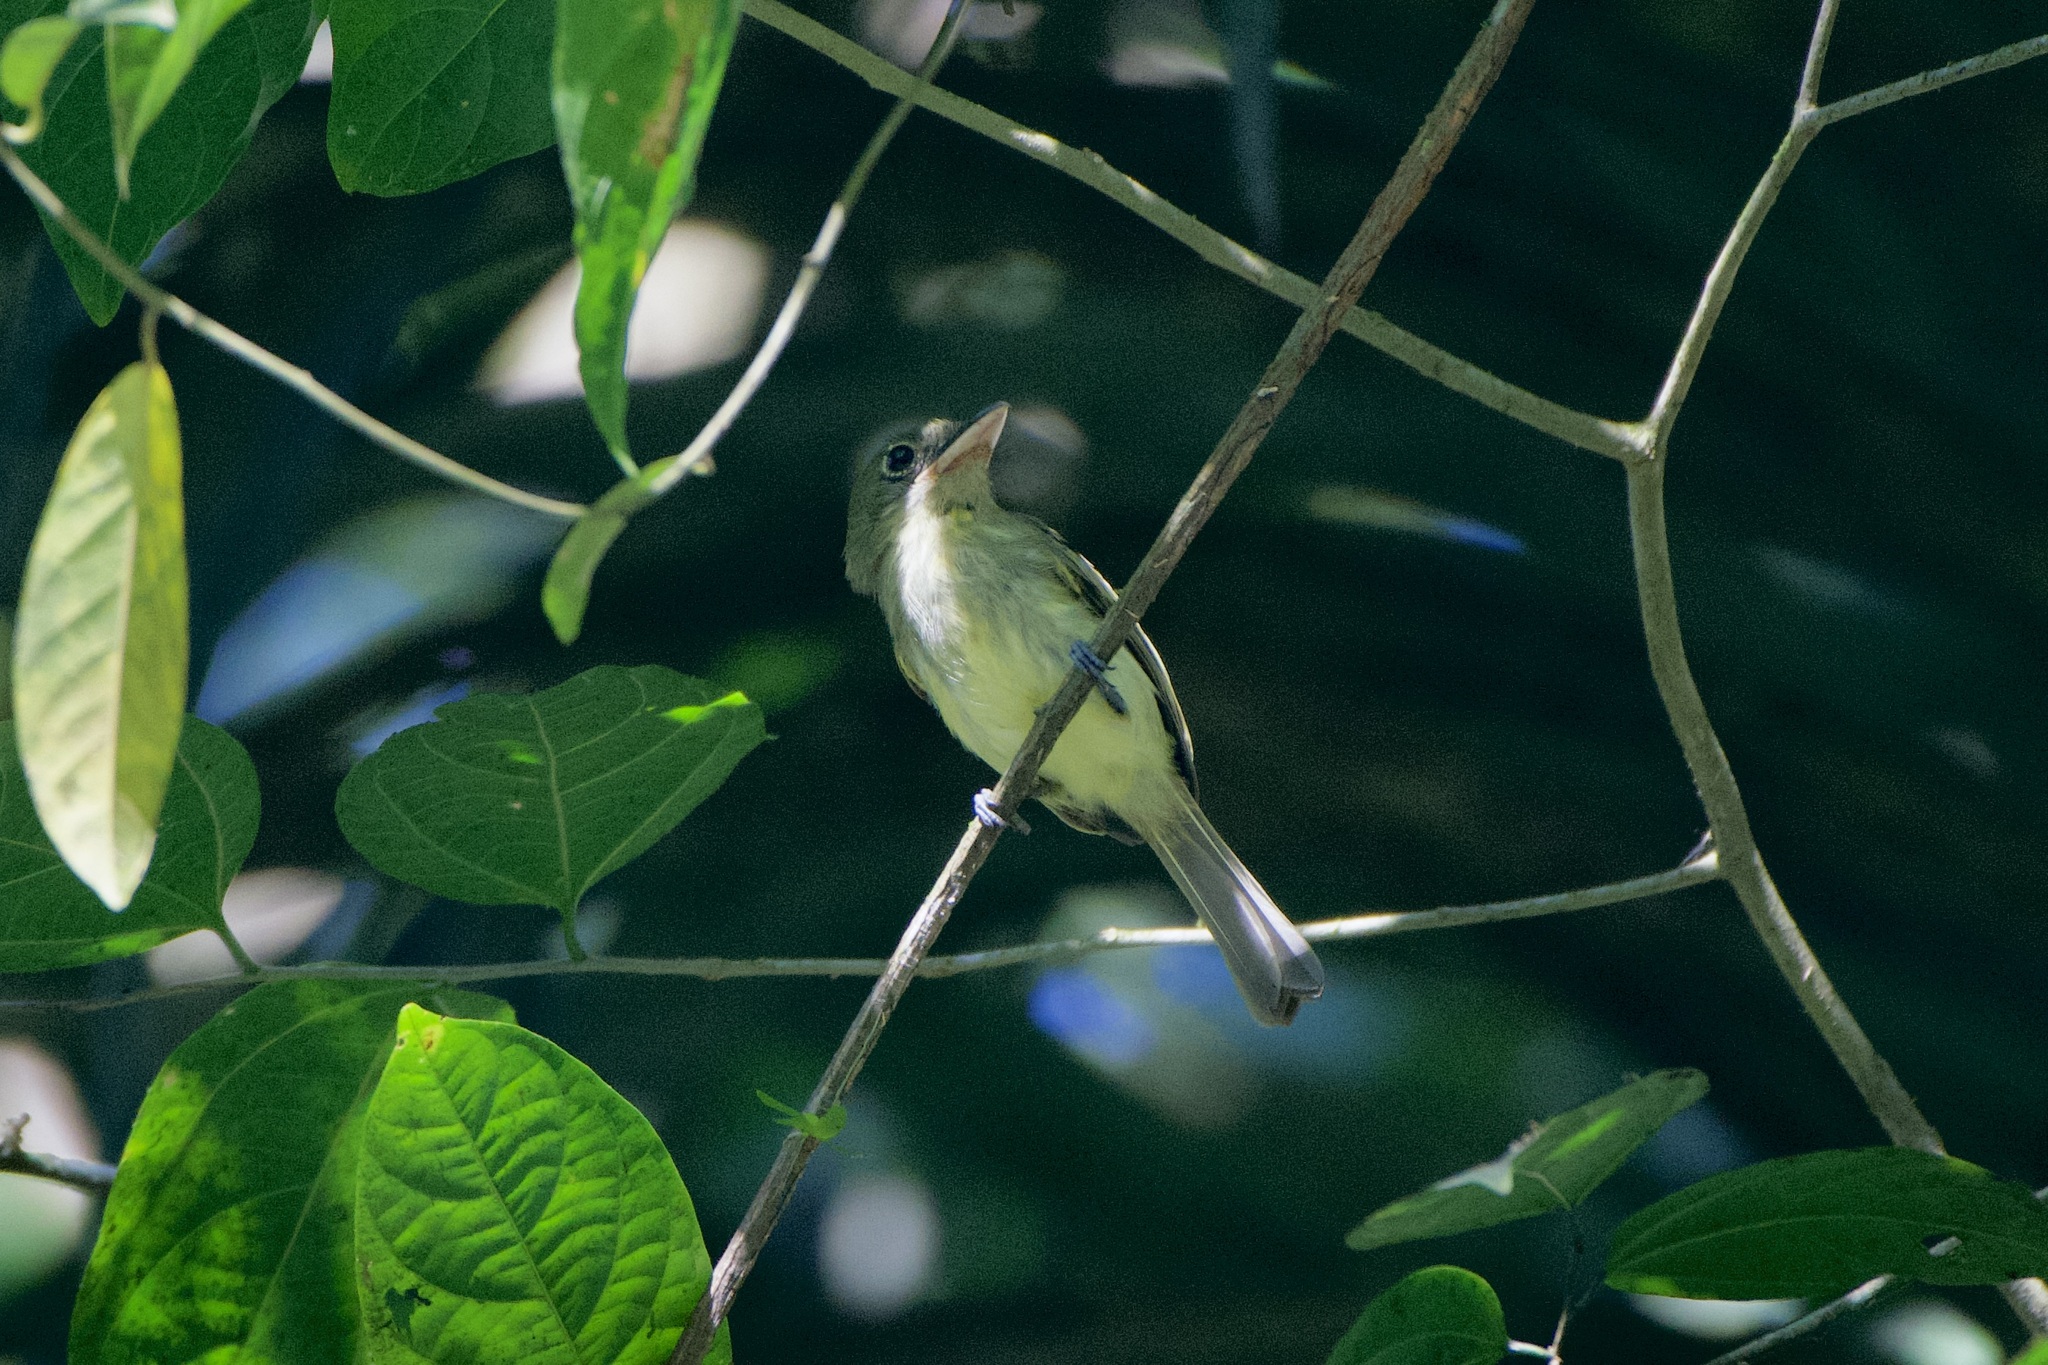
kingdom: Animalia
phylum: Chordata
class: Aves
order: Passeriformes
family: Tyrannidae
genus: Rhynchocyclus
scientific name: Rhynchocyclus olivaceus
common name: Olivaceous flatbill
